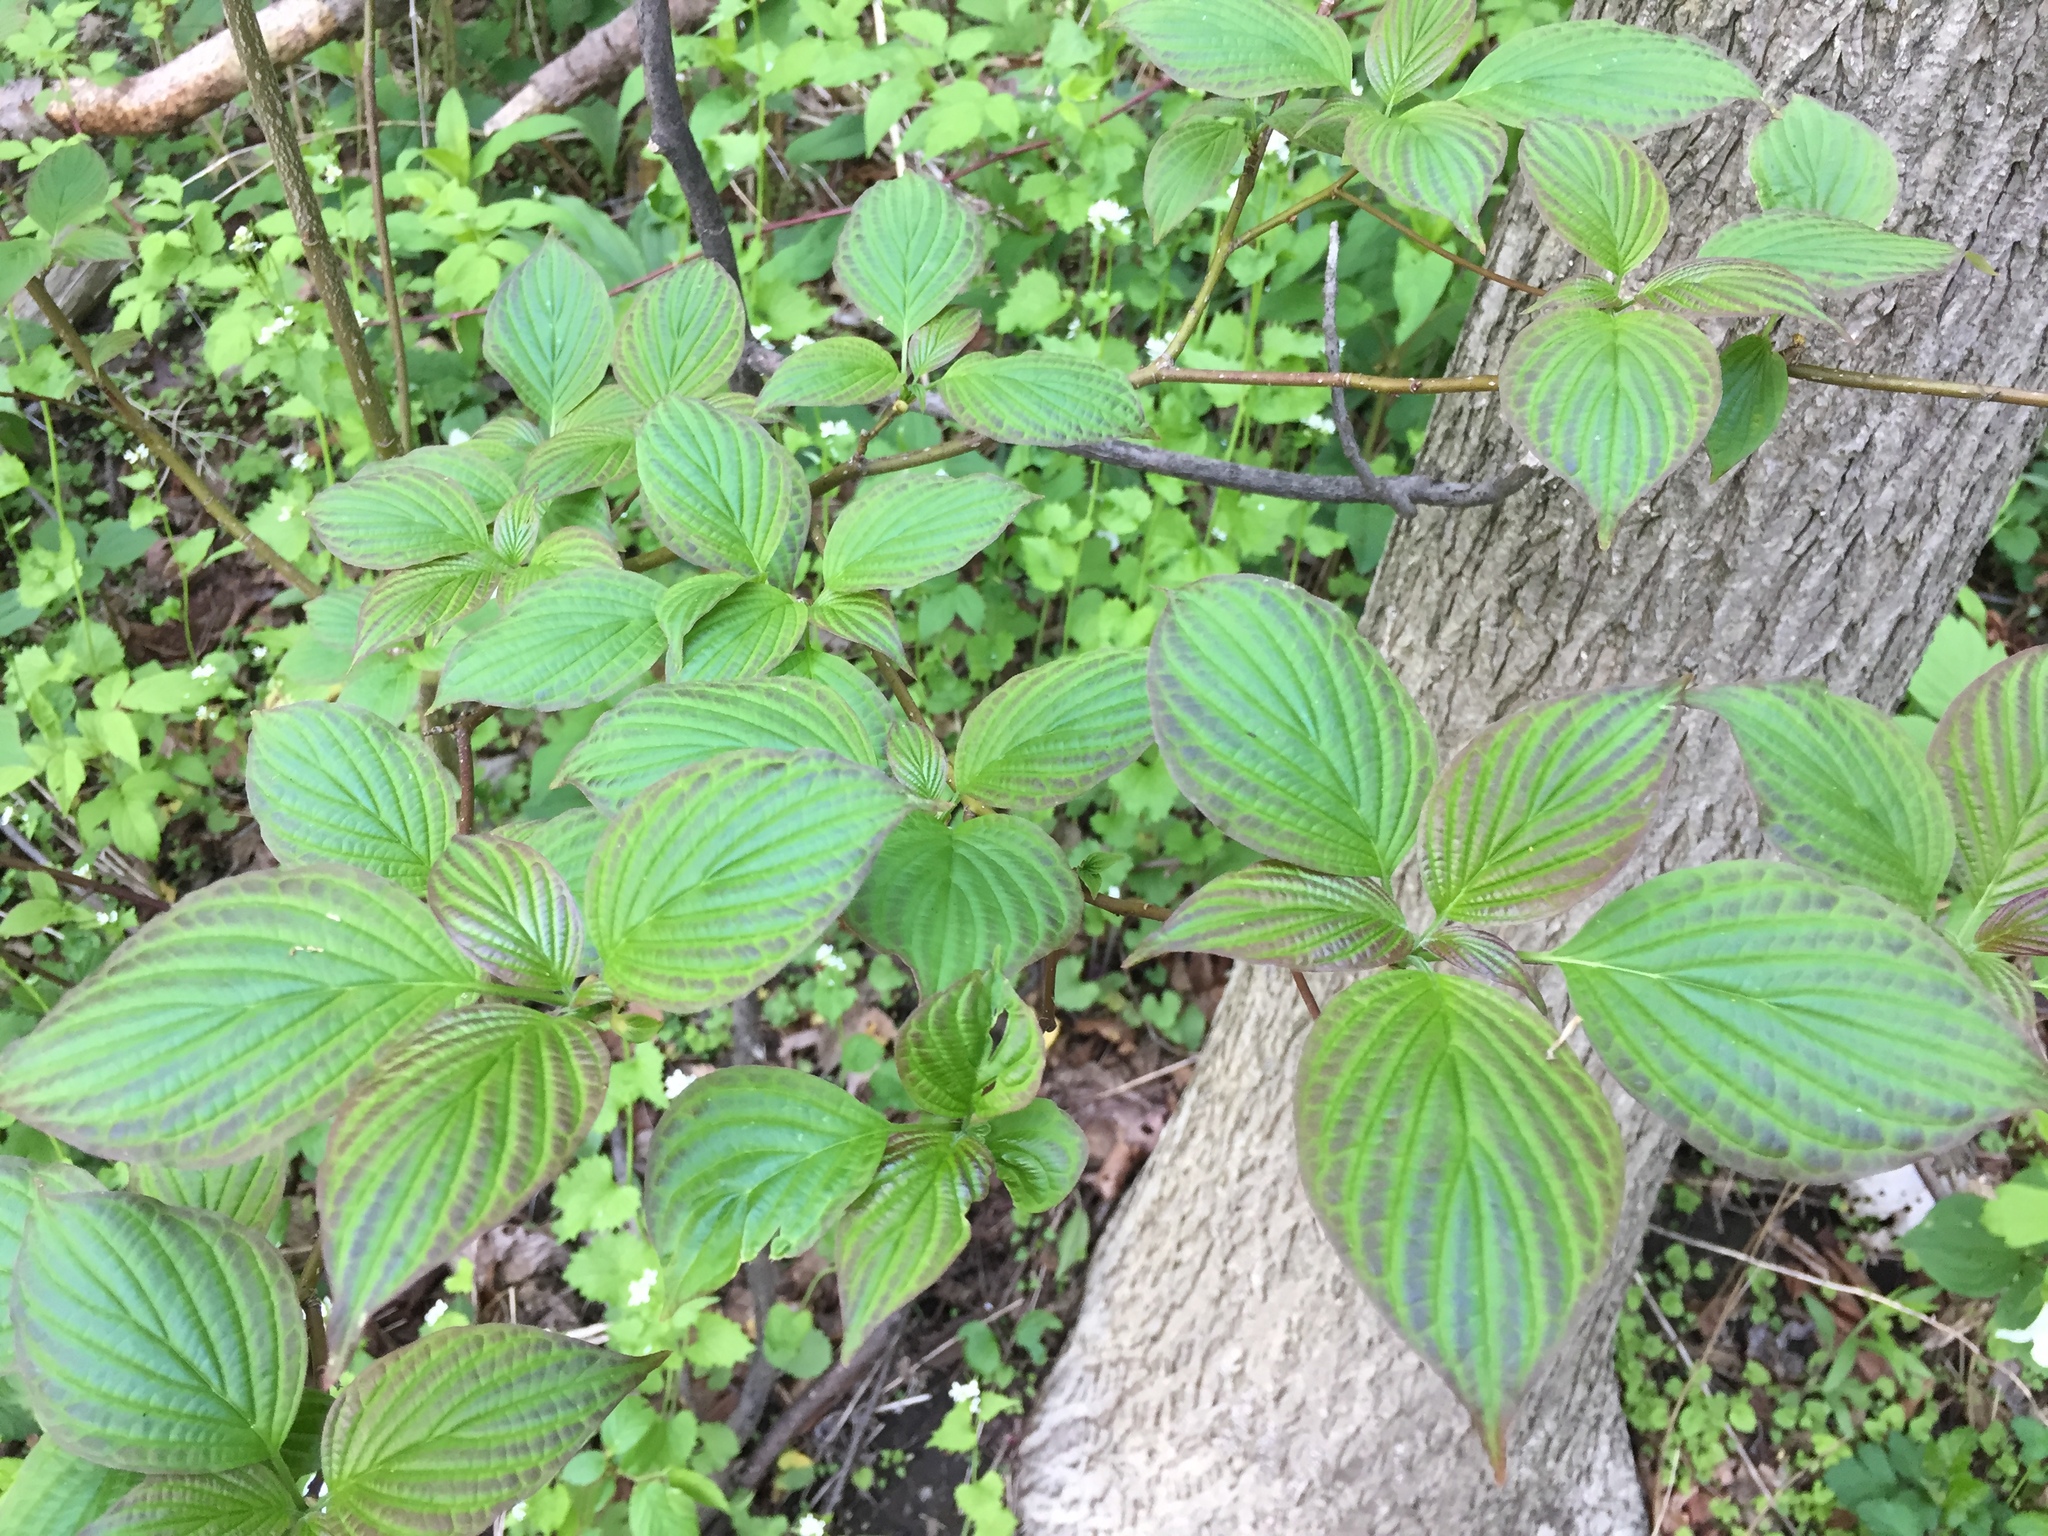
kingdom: Plantae
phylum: Tracheophyta
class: Magnoliopsida
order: Cornales
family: Cornaceae
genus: Cornus
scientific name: Cornus alternifolia
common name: Pagoda dogwood
